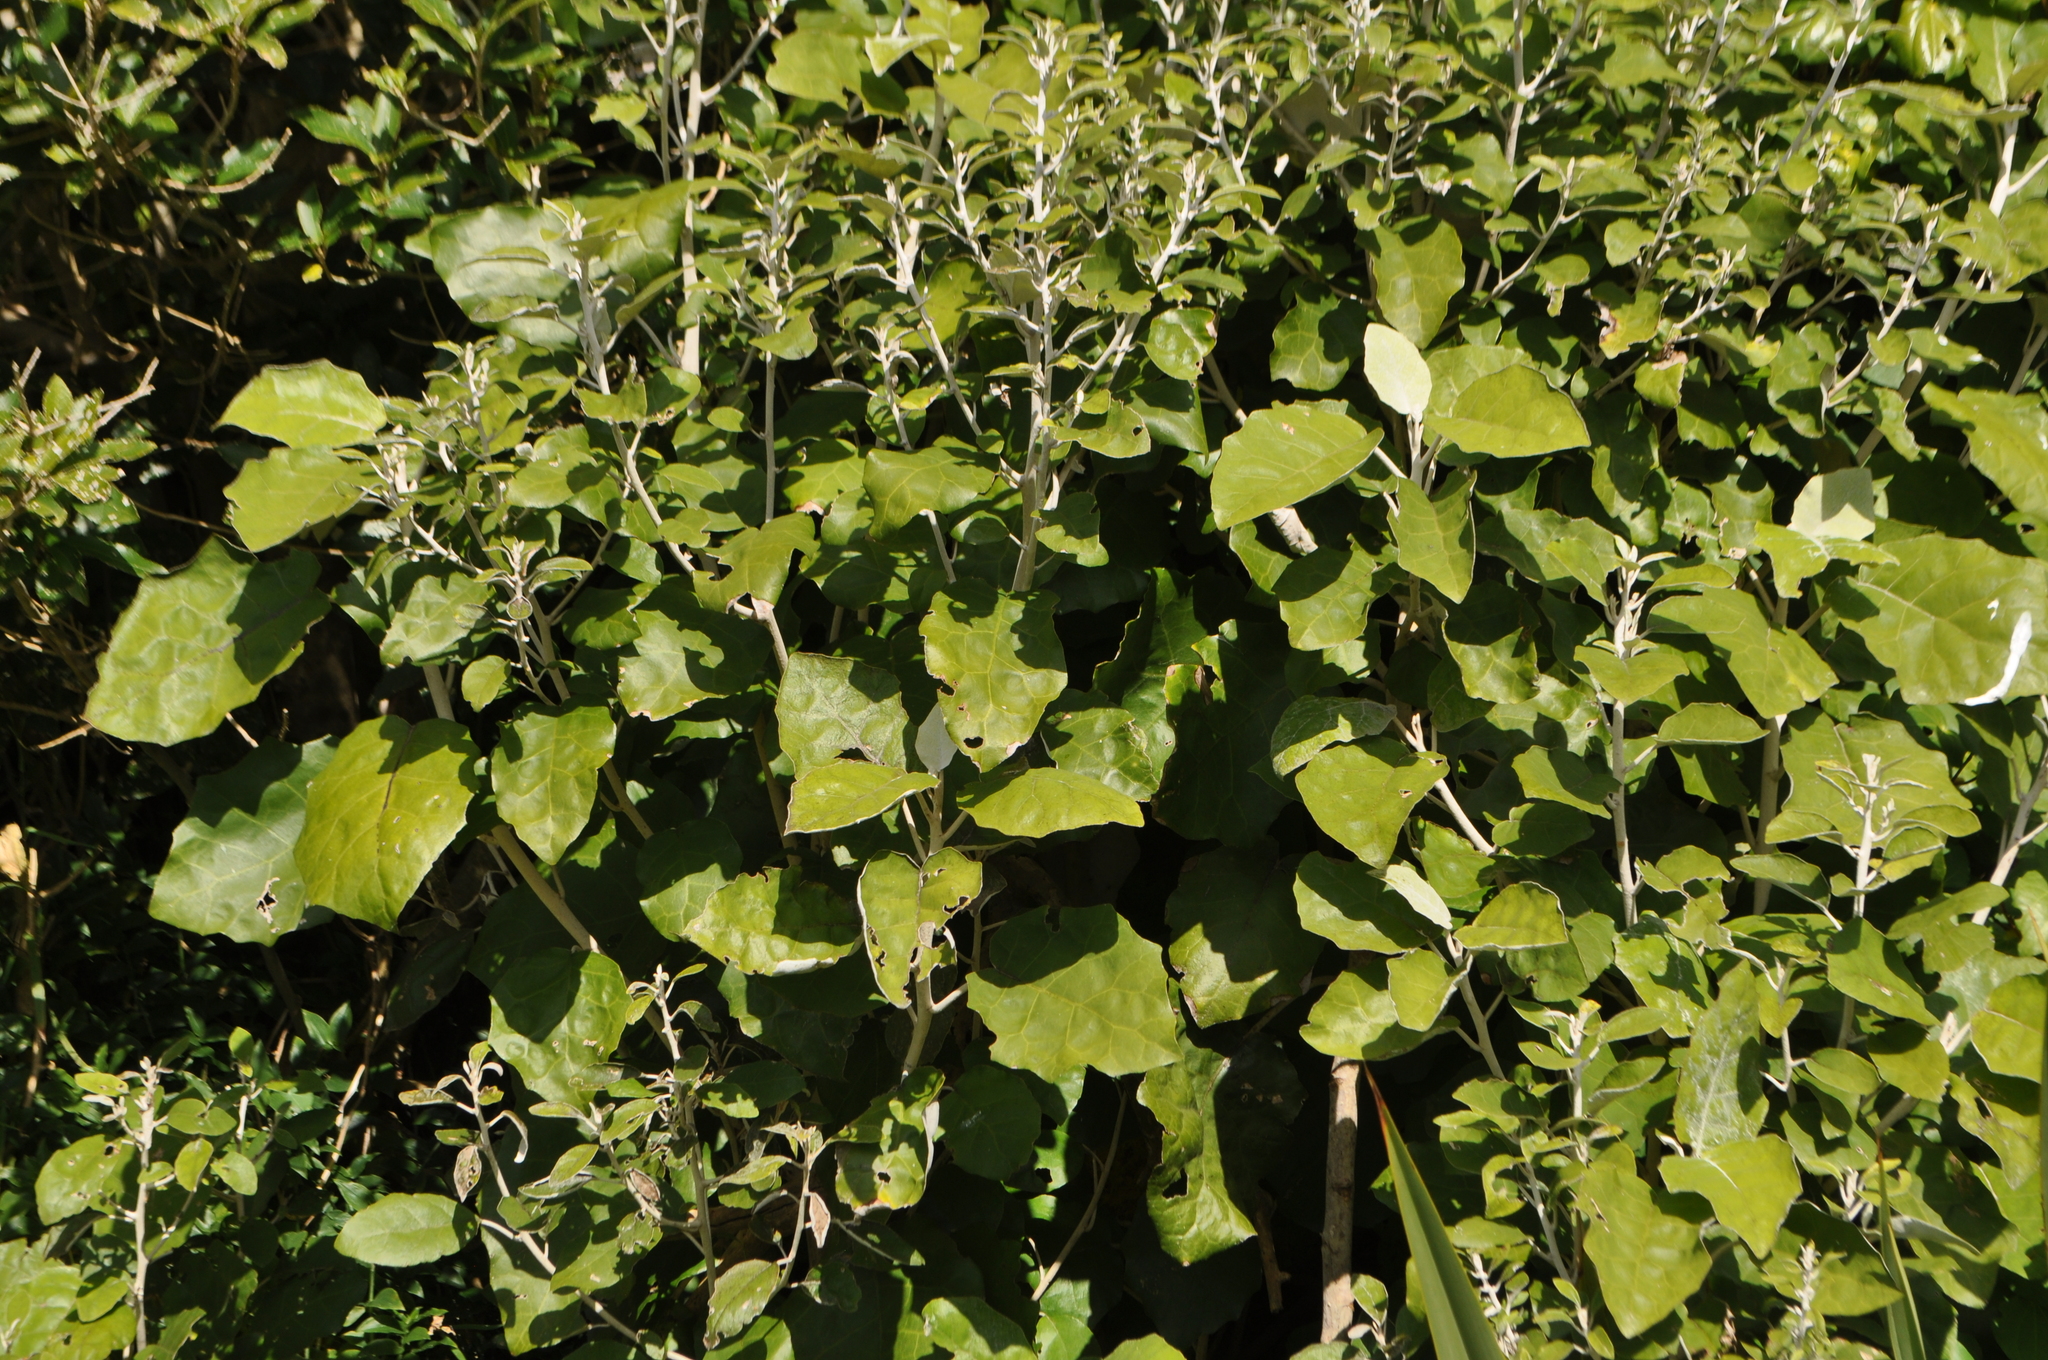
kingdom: Plantae
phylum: Tracheophyta
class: Magnoliopsida
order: Asterales
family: Asteraceae
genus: Brachyglottis
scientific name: Brachyglottis repanda
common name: Hedge ragwort
